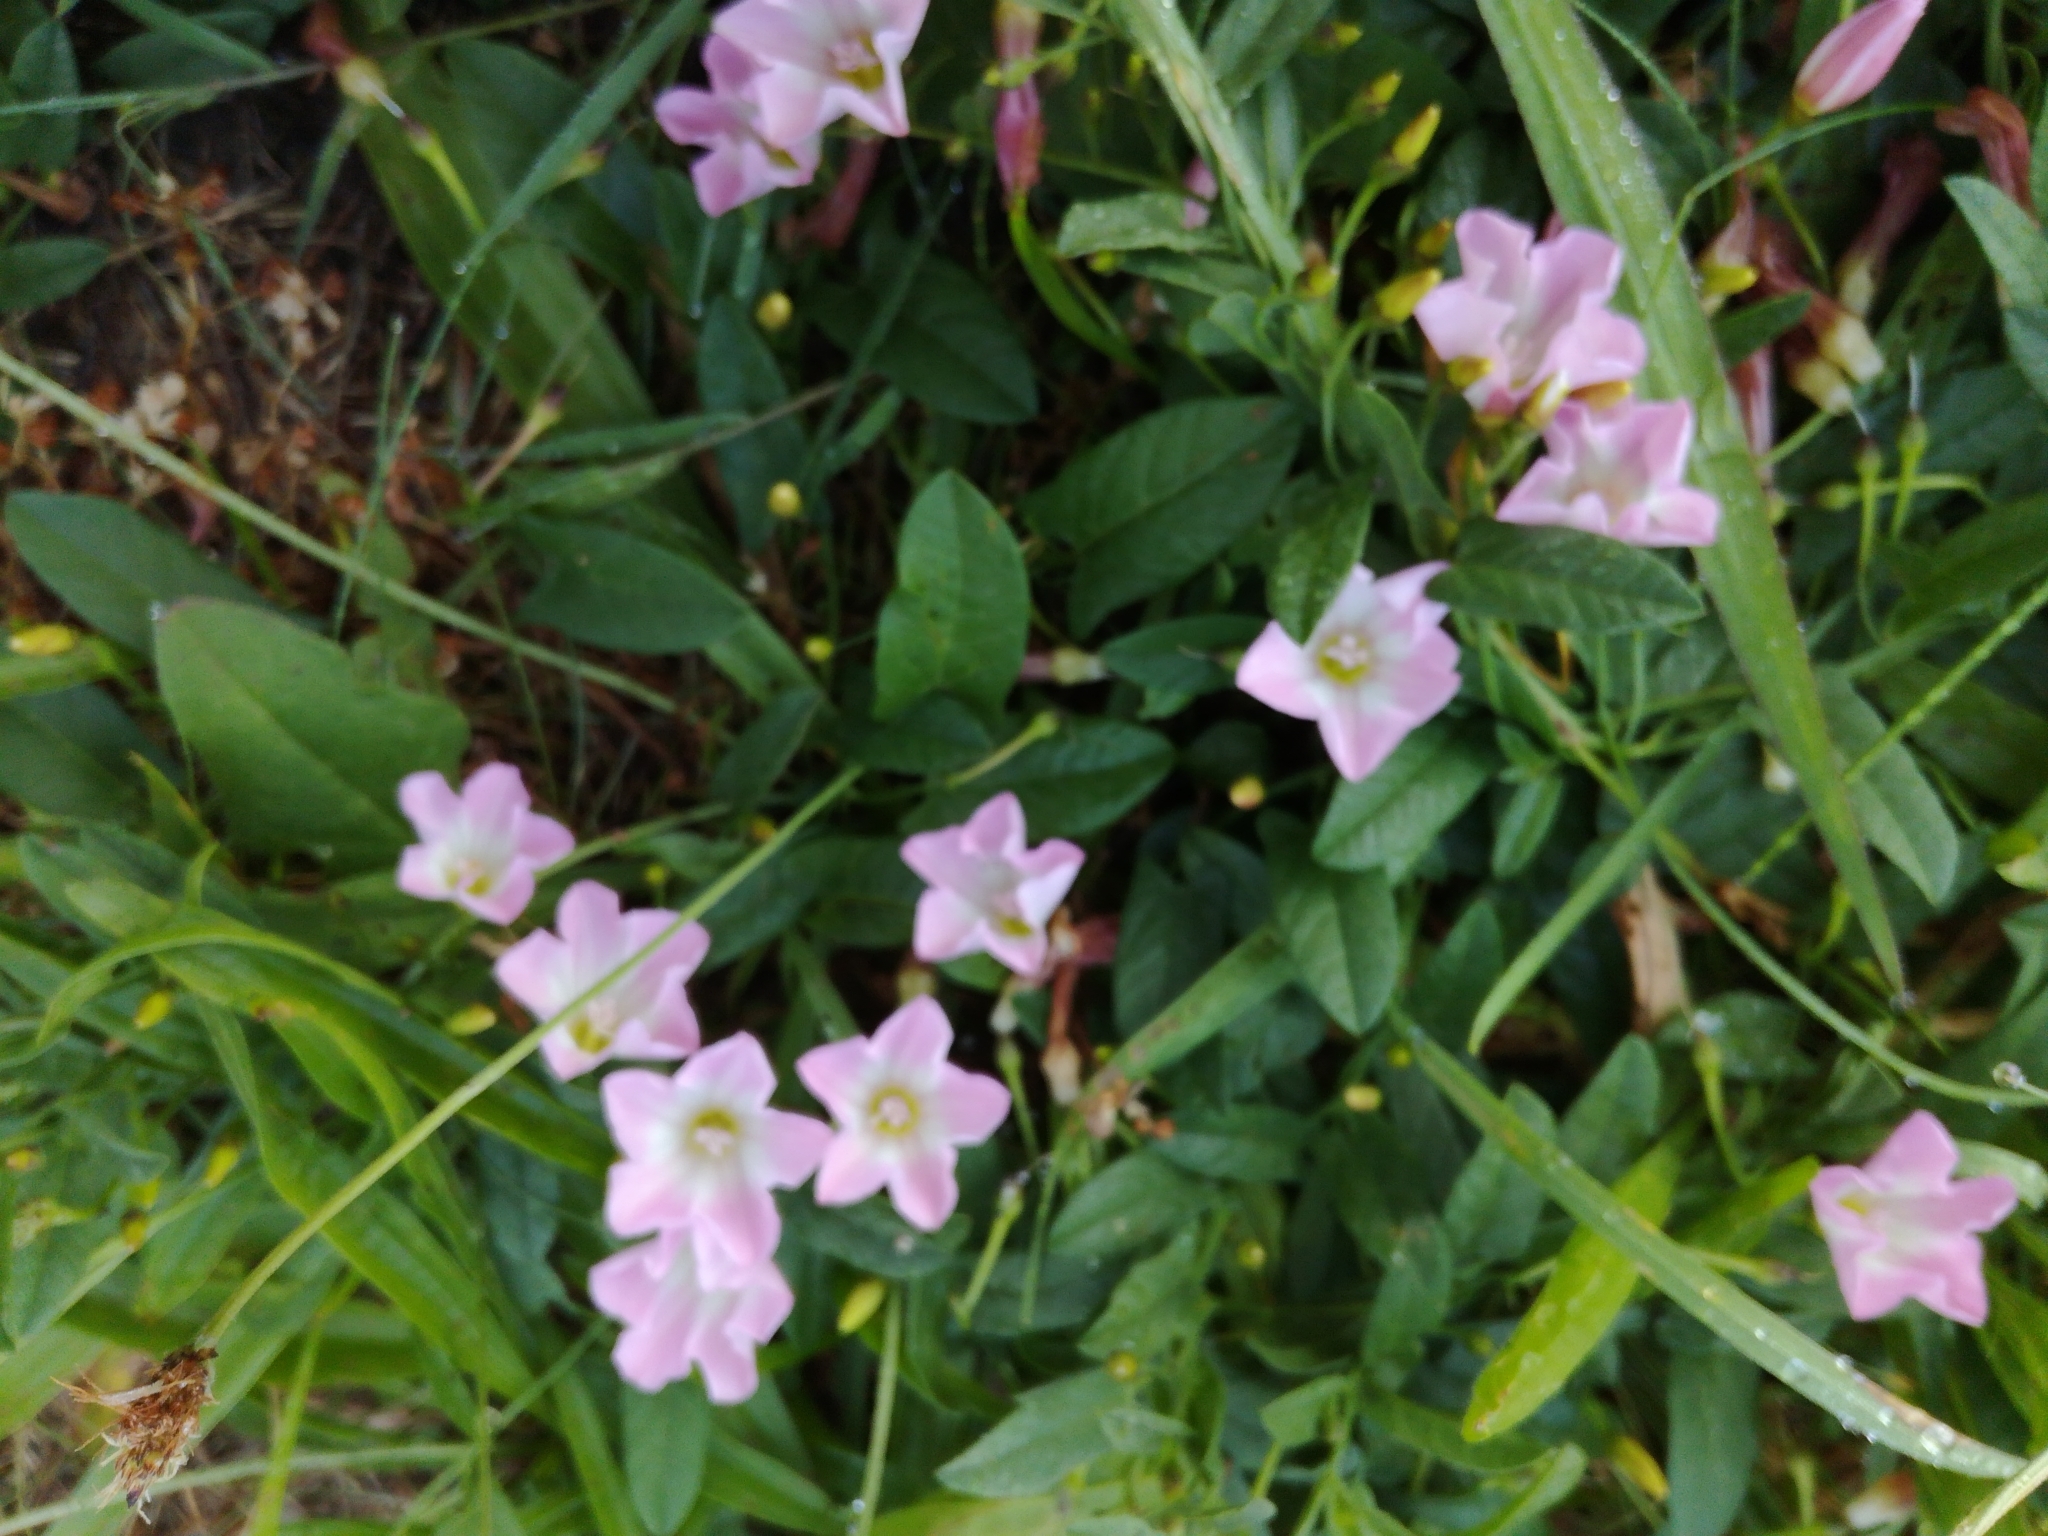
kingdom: Plantae
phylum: Tracheophyta
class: Magnoliopsida
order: Solanales
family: Convolvulaceae
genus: Convolvulus
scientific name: Convolvulus arvensis
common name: Field bindweed
